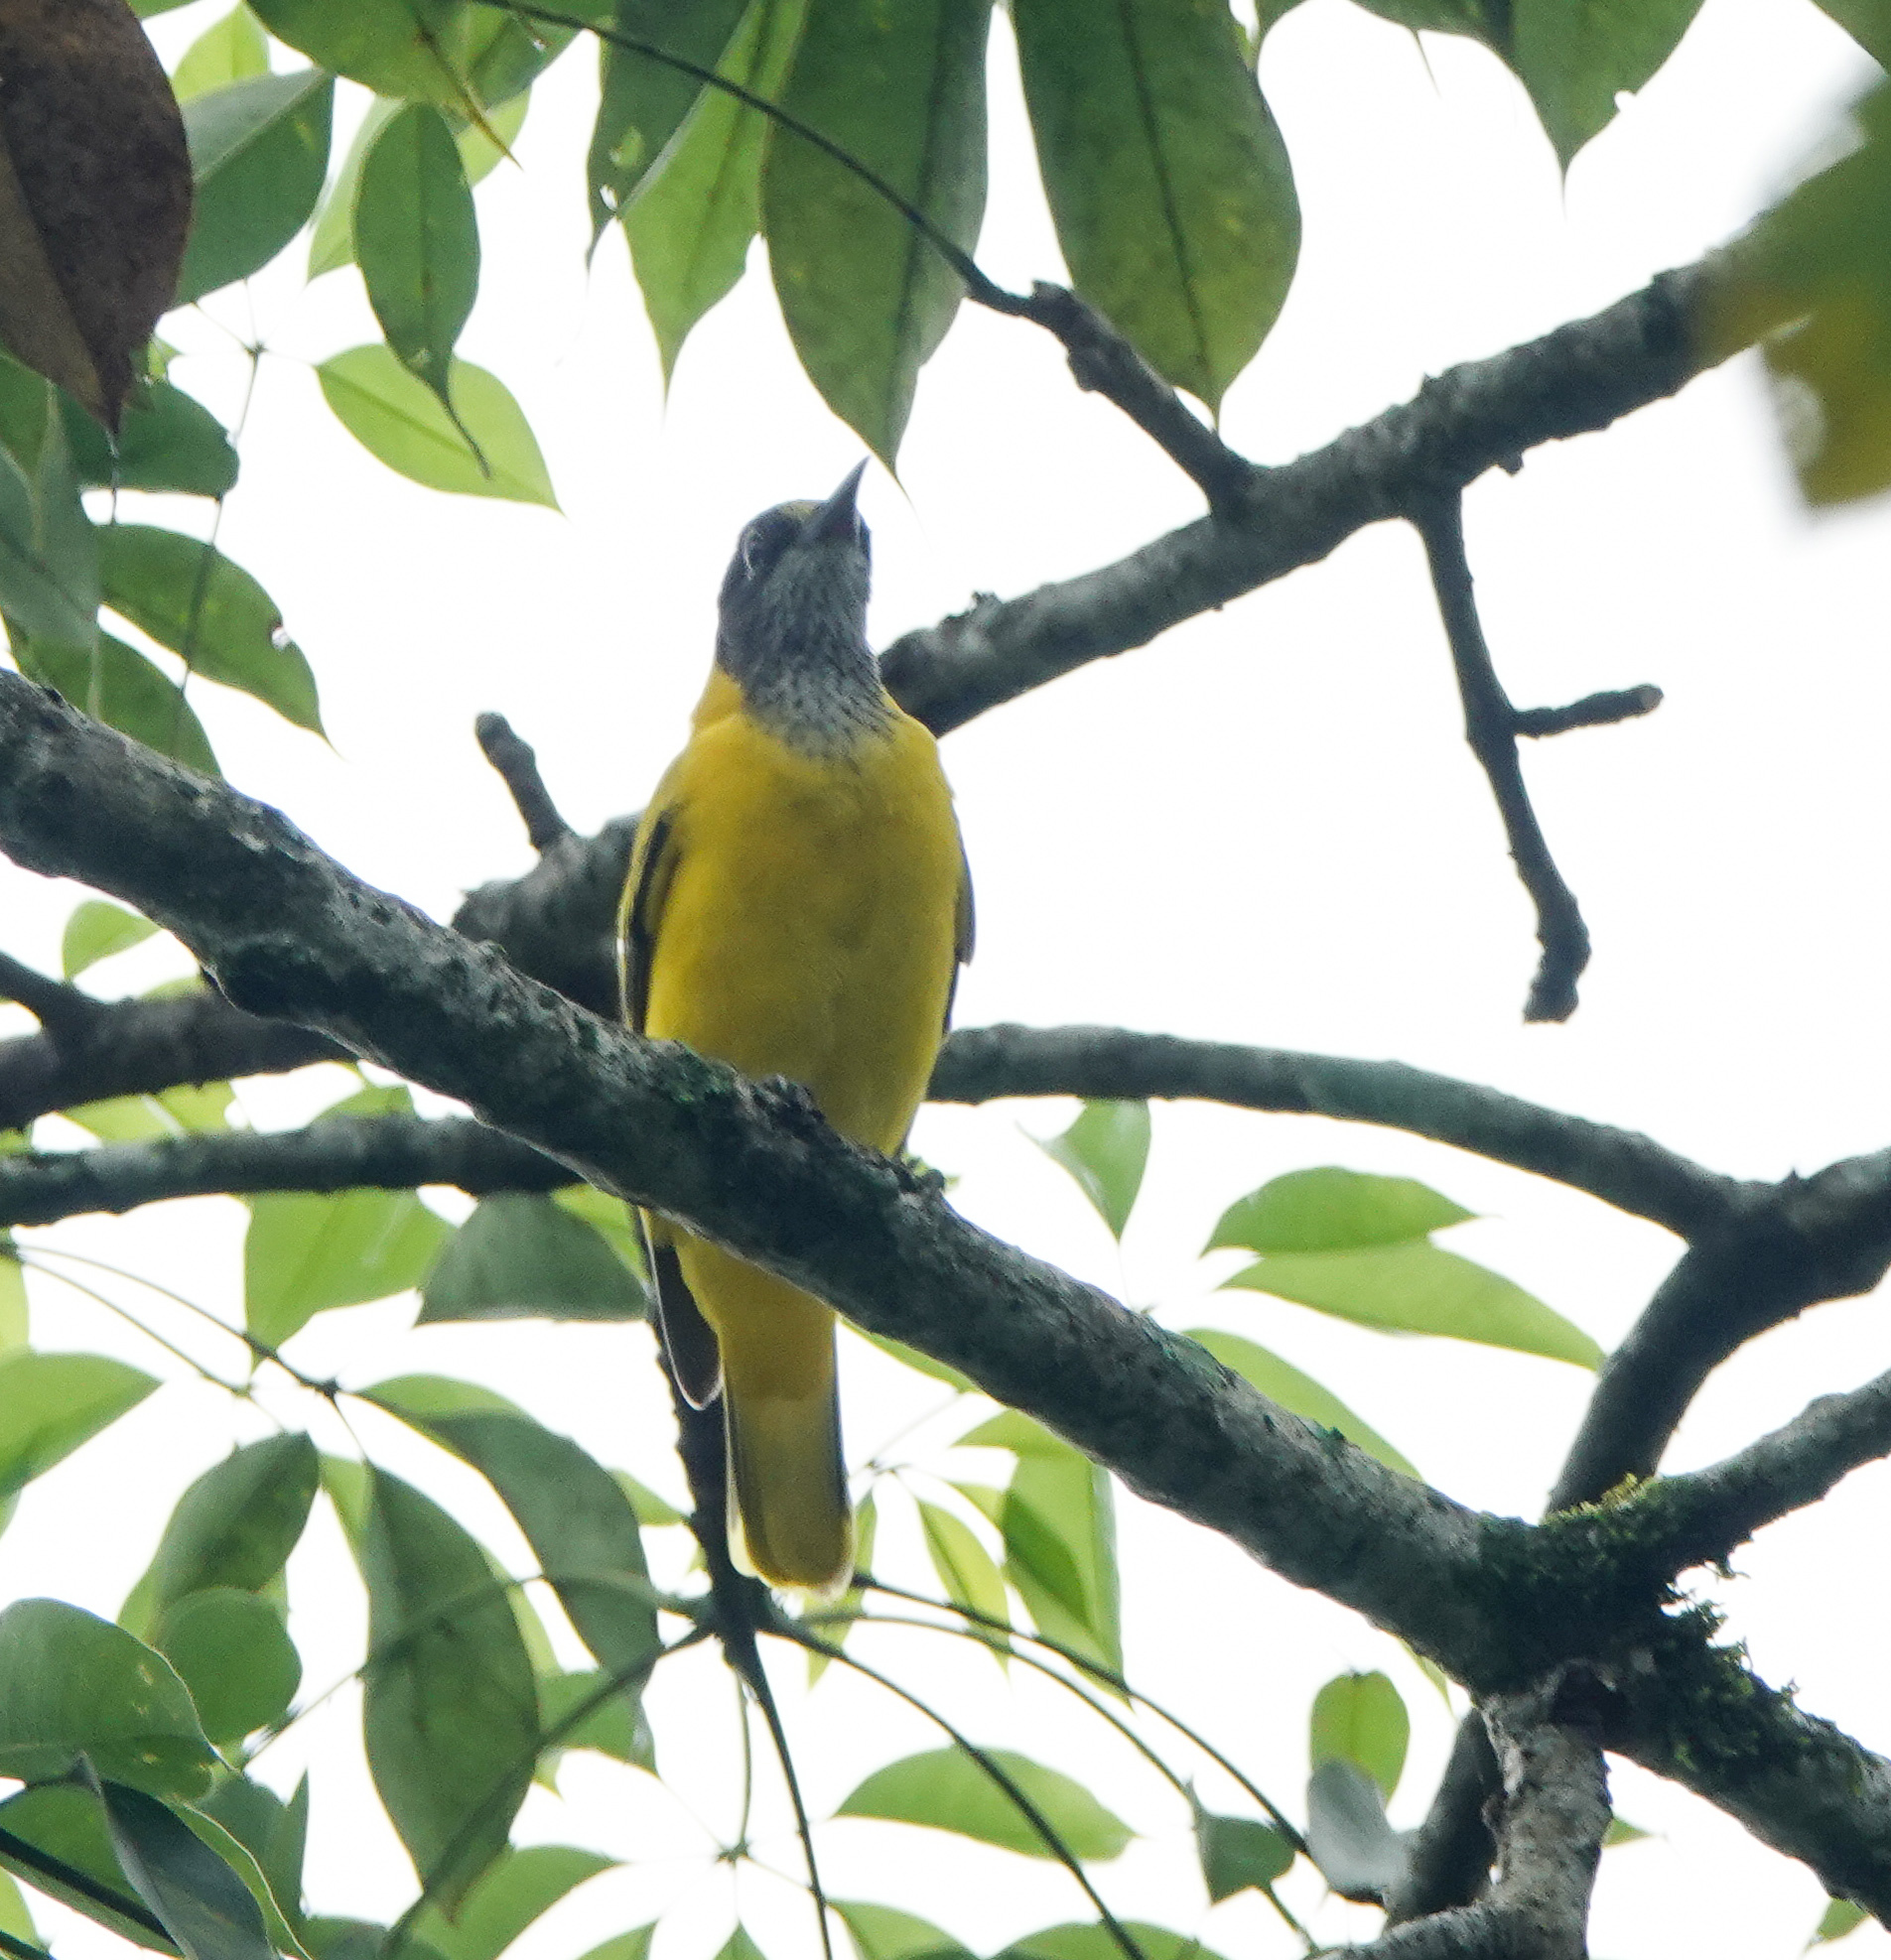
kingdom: Animalia
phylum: Chordata
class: Aves
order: Passeriformes
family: Oriolidae
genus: Oriolus
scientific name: Oriolus xanthornus
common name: Black-hooded oriole
